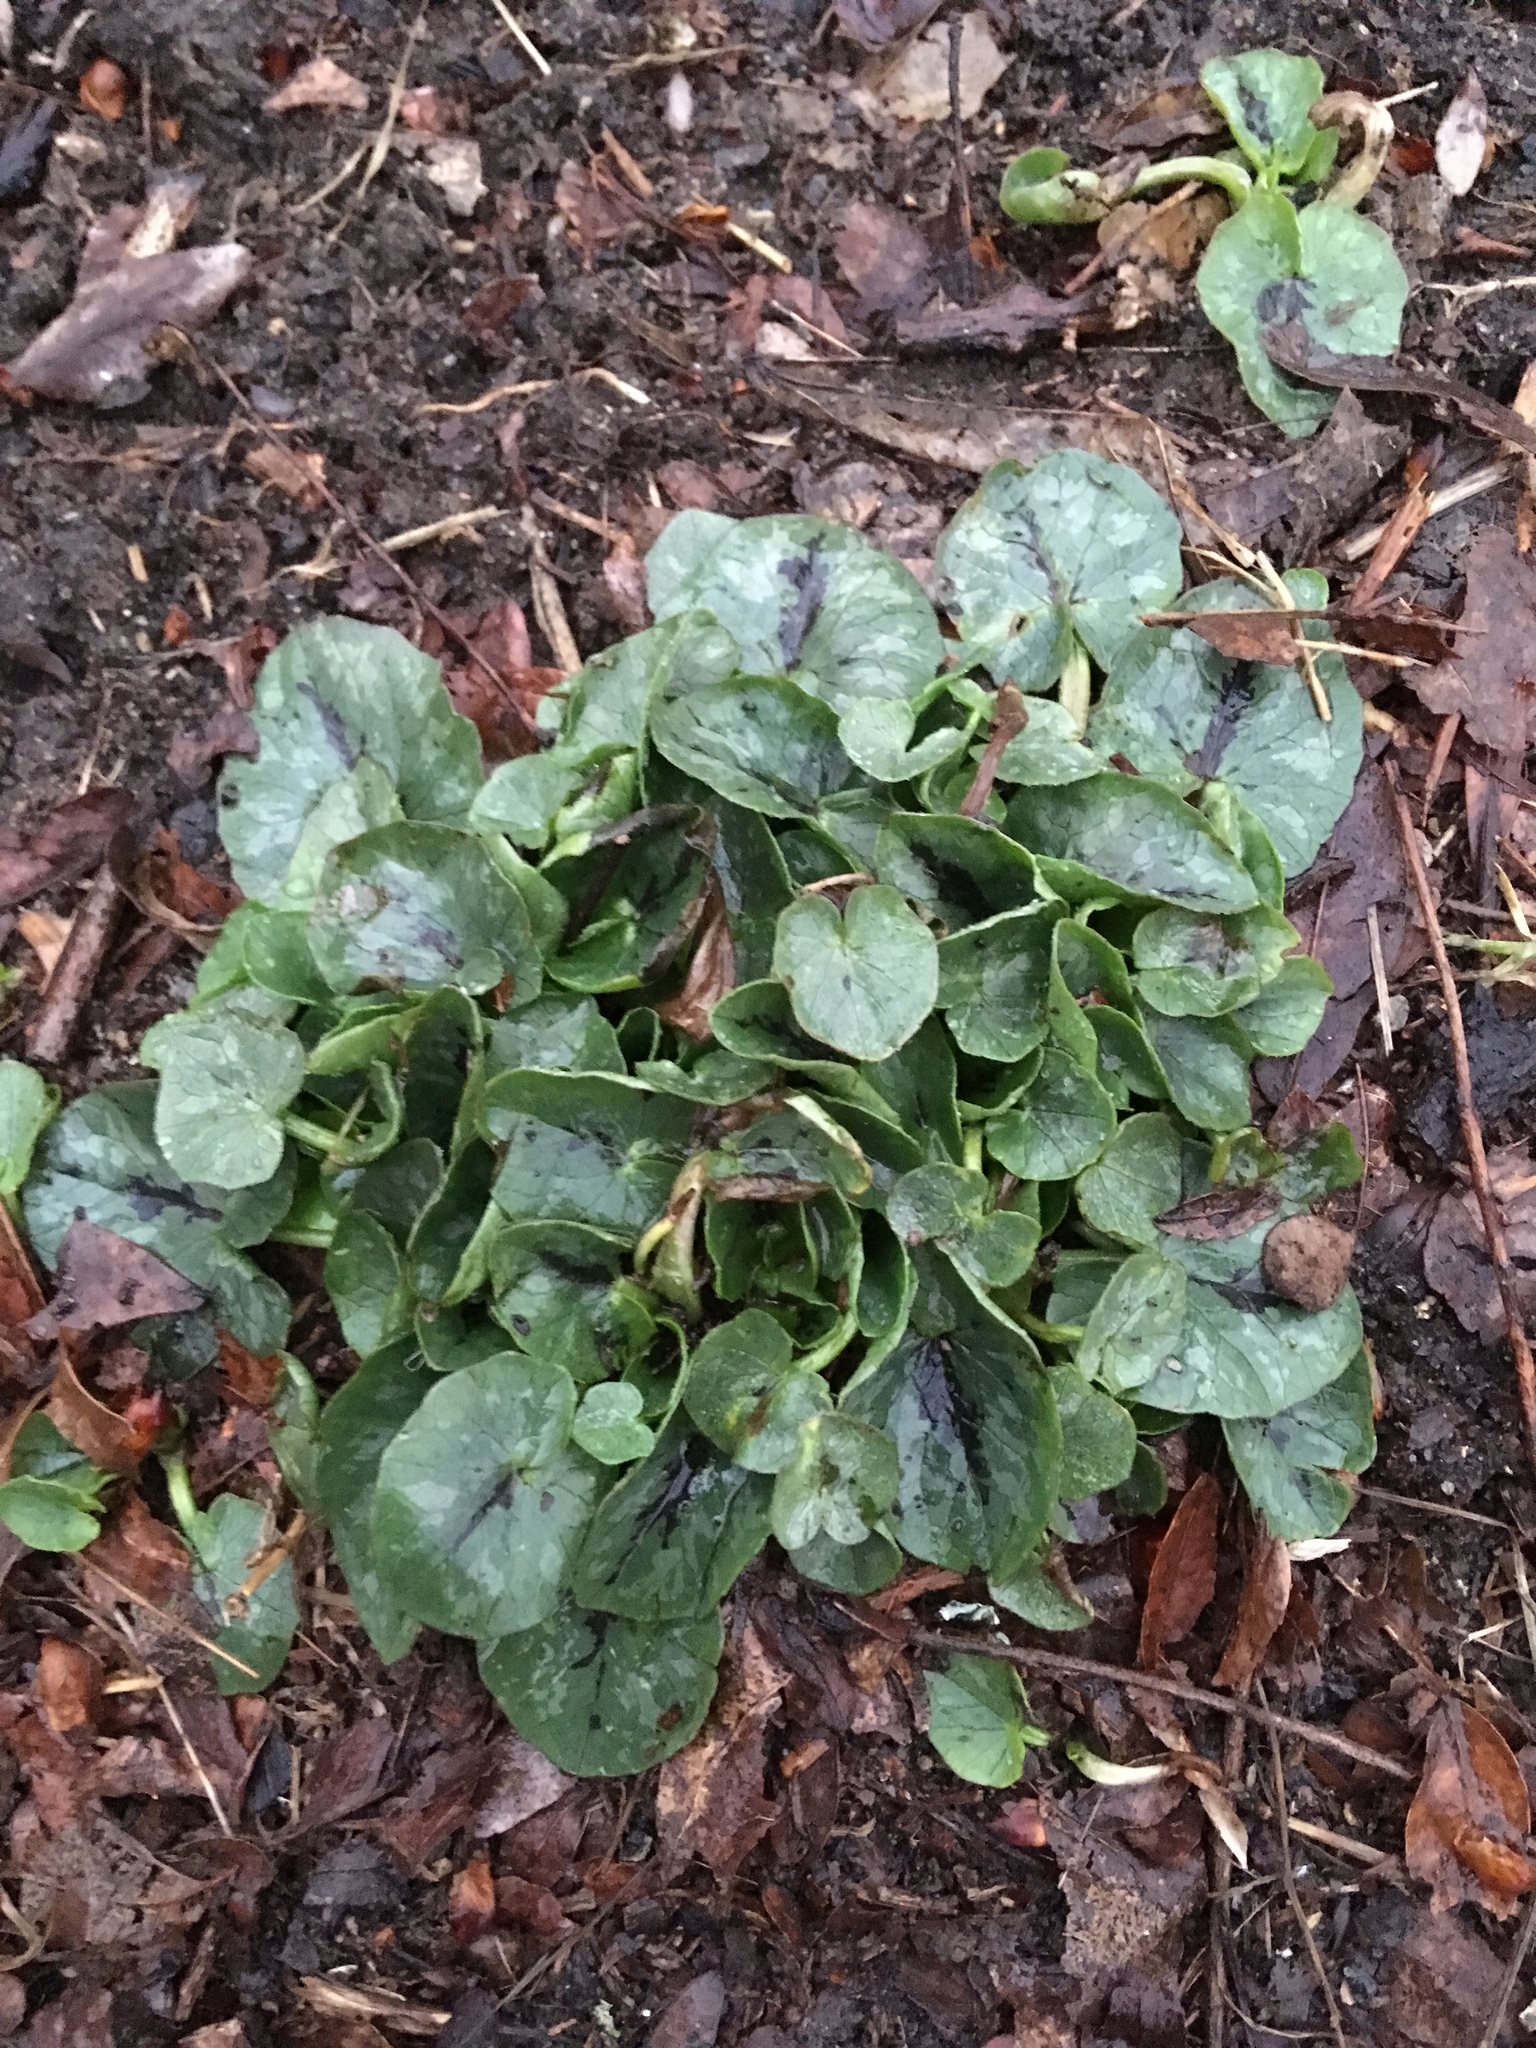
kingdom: Plantae
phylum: Tracheophyta
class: Magnoliopsida
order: Ranunculales
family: Ranunculaceae
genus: Ficaria
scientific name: Ficaria verna
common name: Lesser celandine
